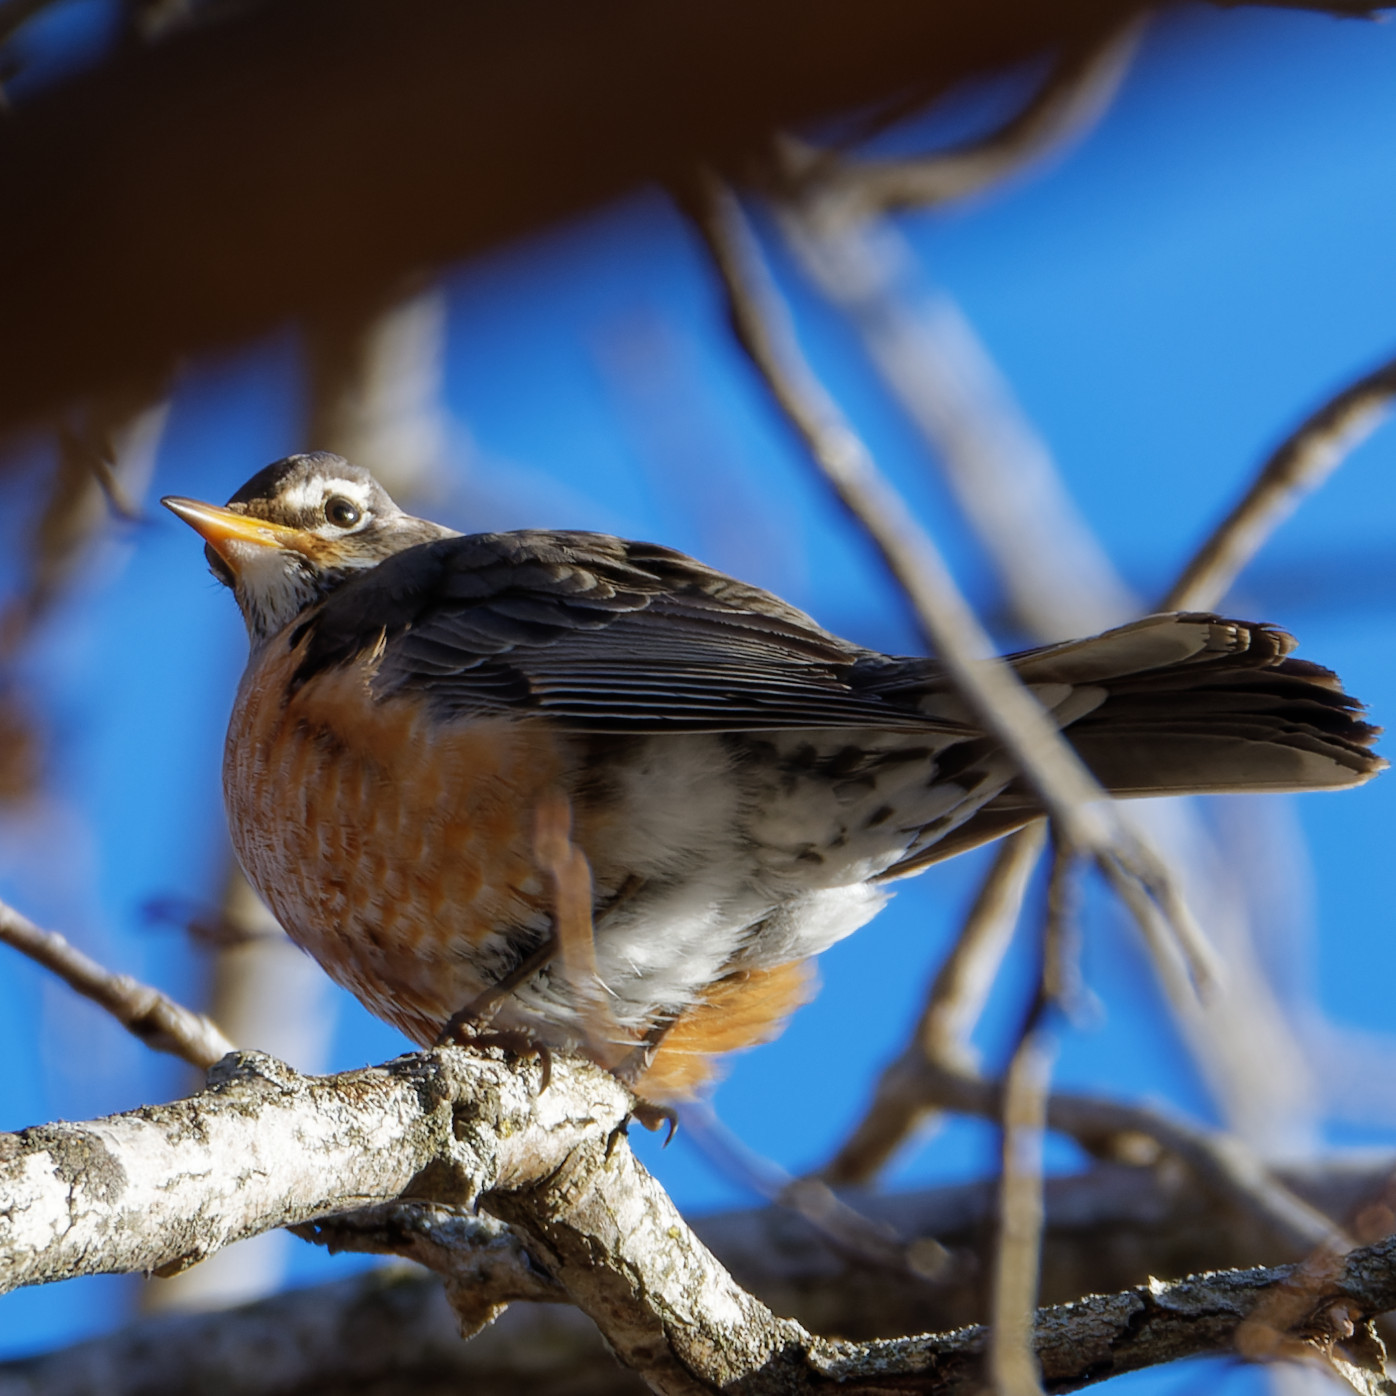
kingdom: Animalia
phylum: Chordata
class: Aves
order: Passeriformes
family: Turdidae
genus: Turdus
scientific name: Turdus migratorius
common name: American robin
